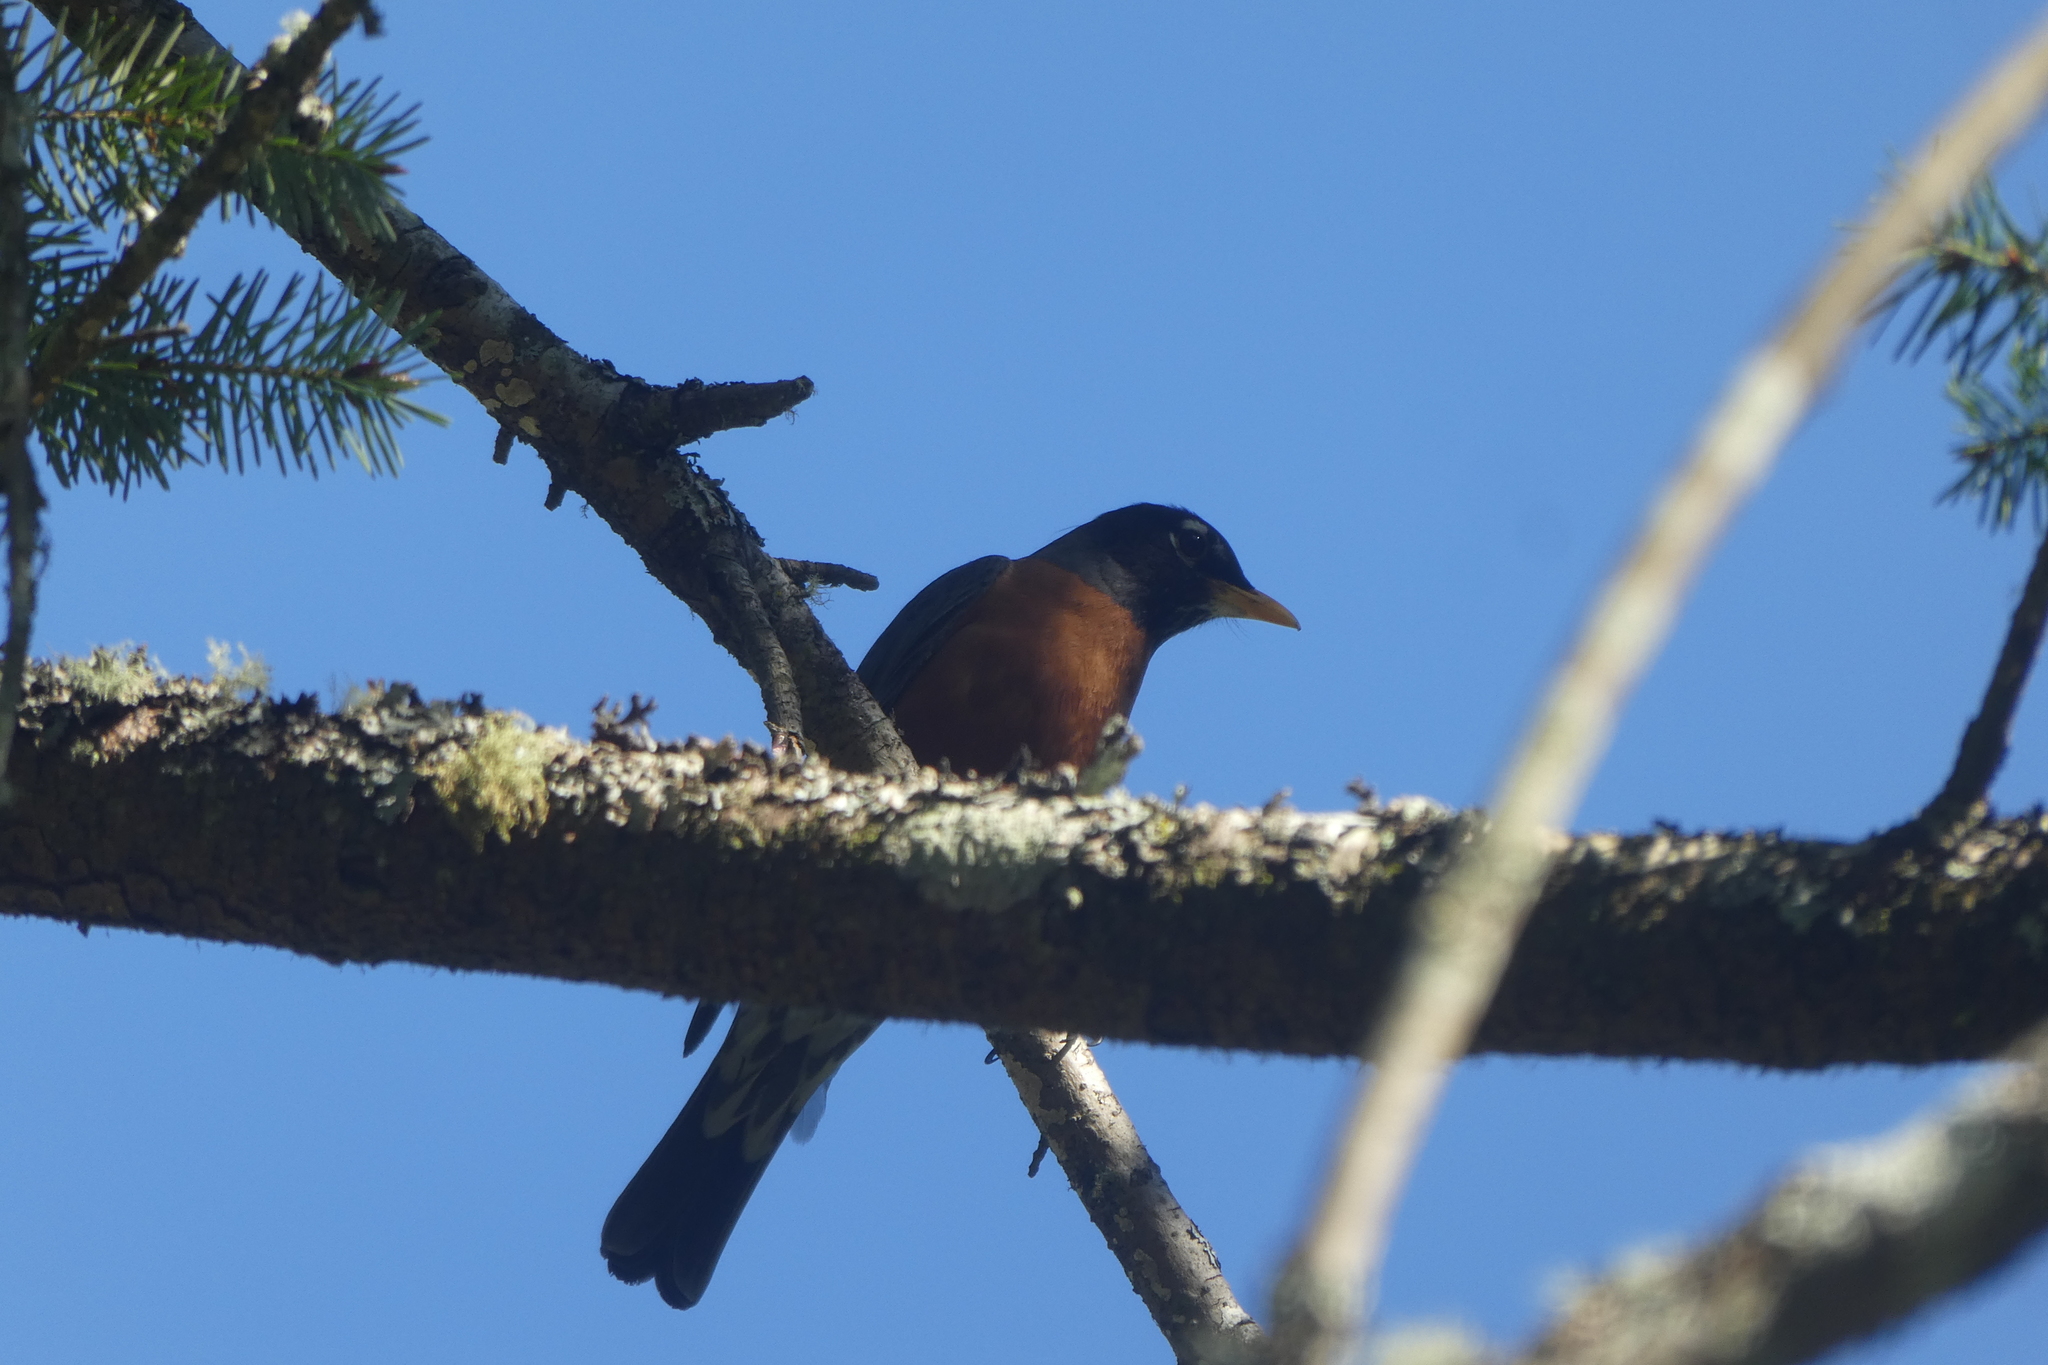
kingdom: Animalia
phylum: Chordata
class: Aves
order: Passeriformes
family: Turdidae
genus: Turdus
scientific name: Turdus migratorius
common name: American robin
